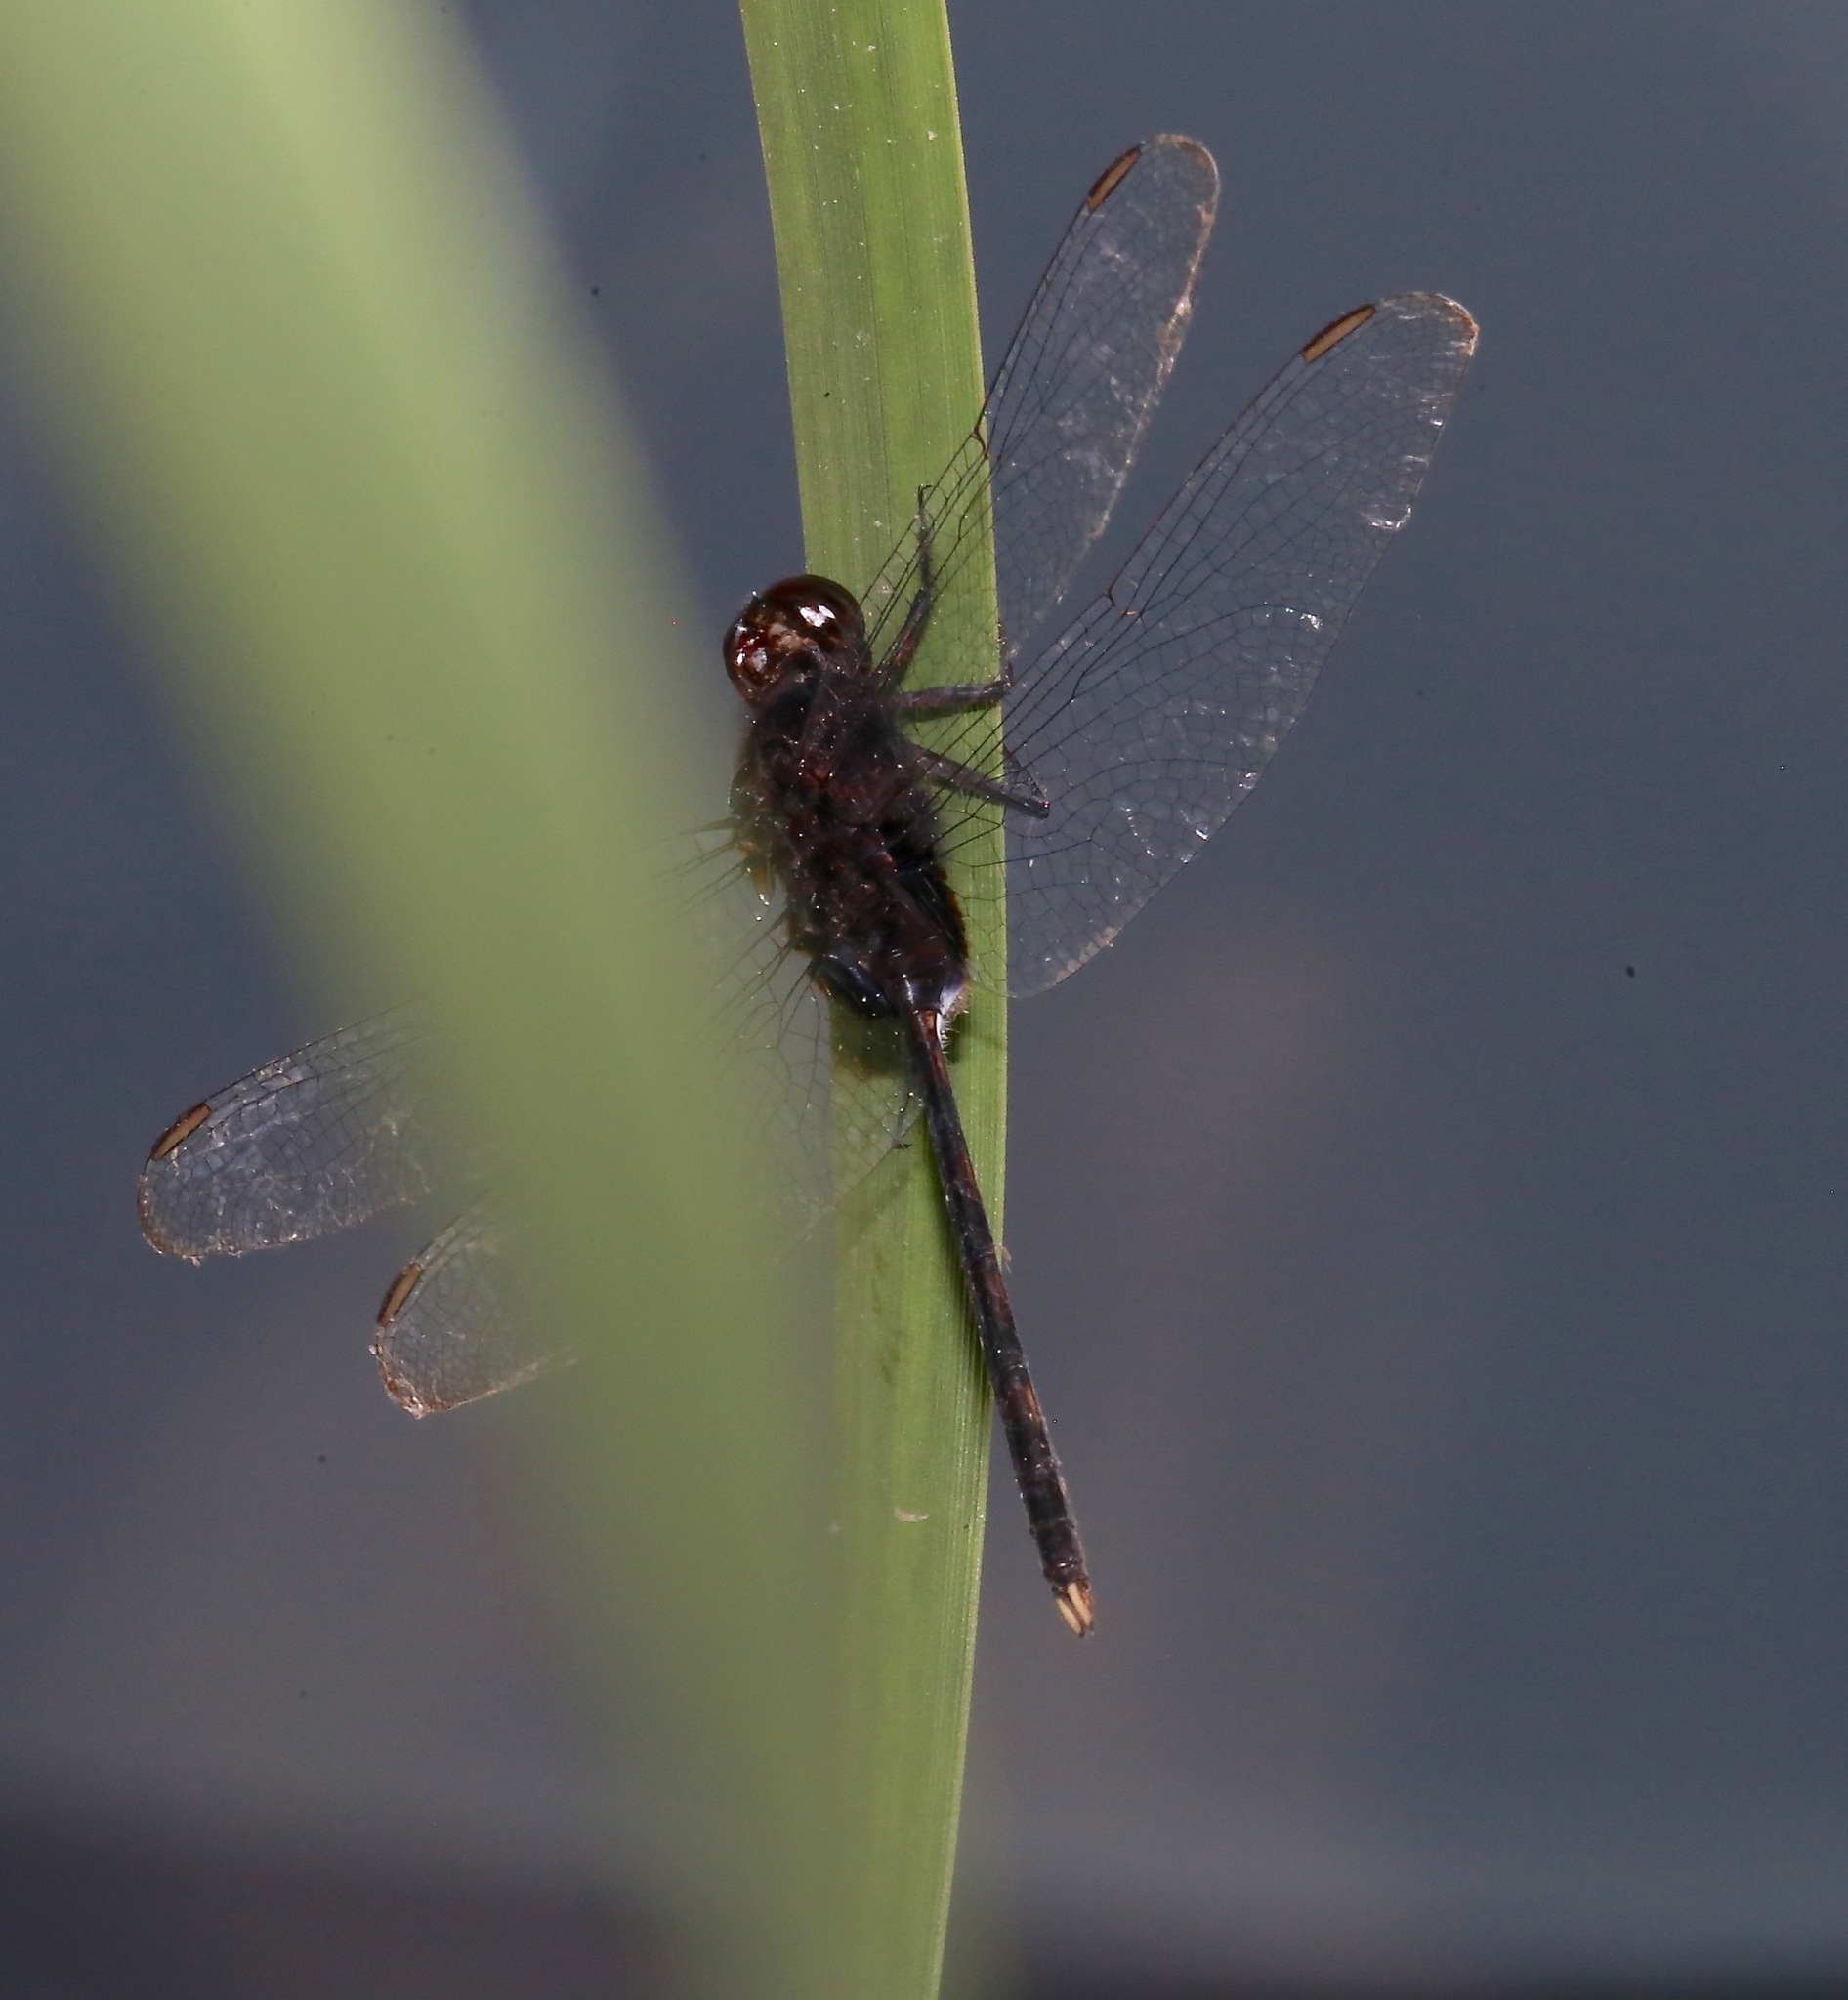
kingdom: Animalia
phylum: Arthropoda
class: Insecta
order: Odonata
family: Libellulidae
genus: Erythemis
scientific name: Erythemis plebeja
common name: Pin-tailed pondhawk
